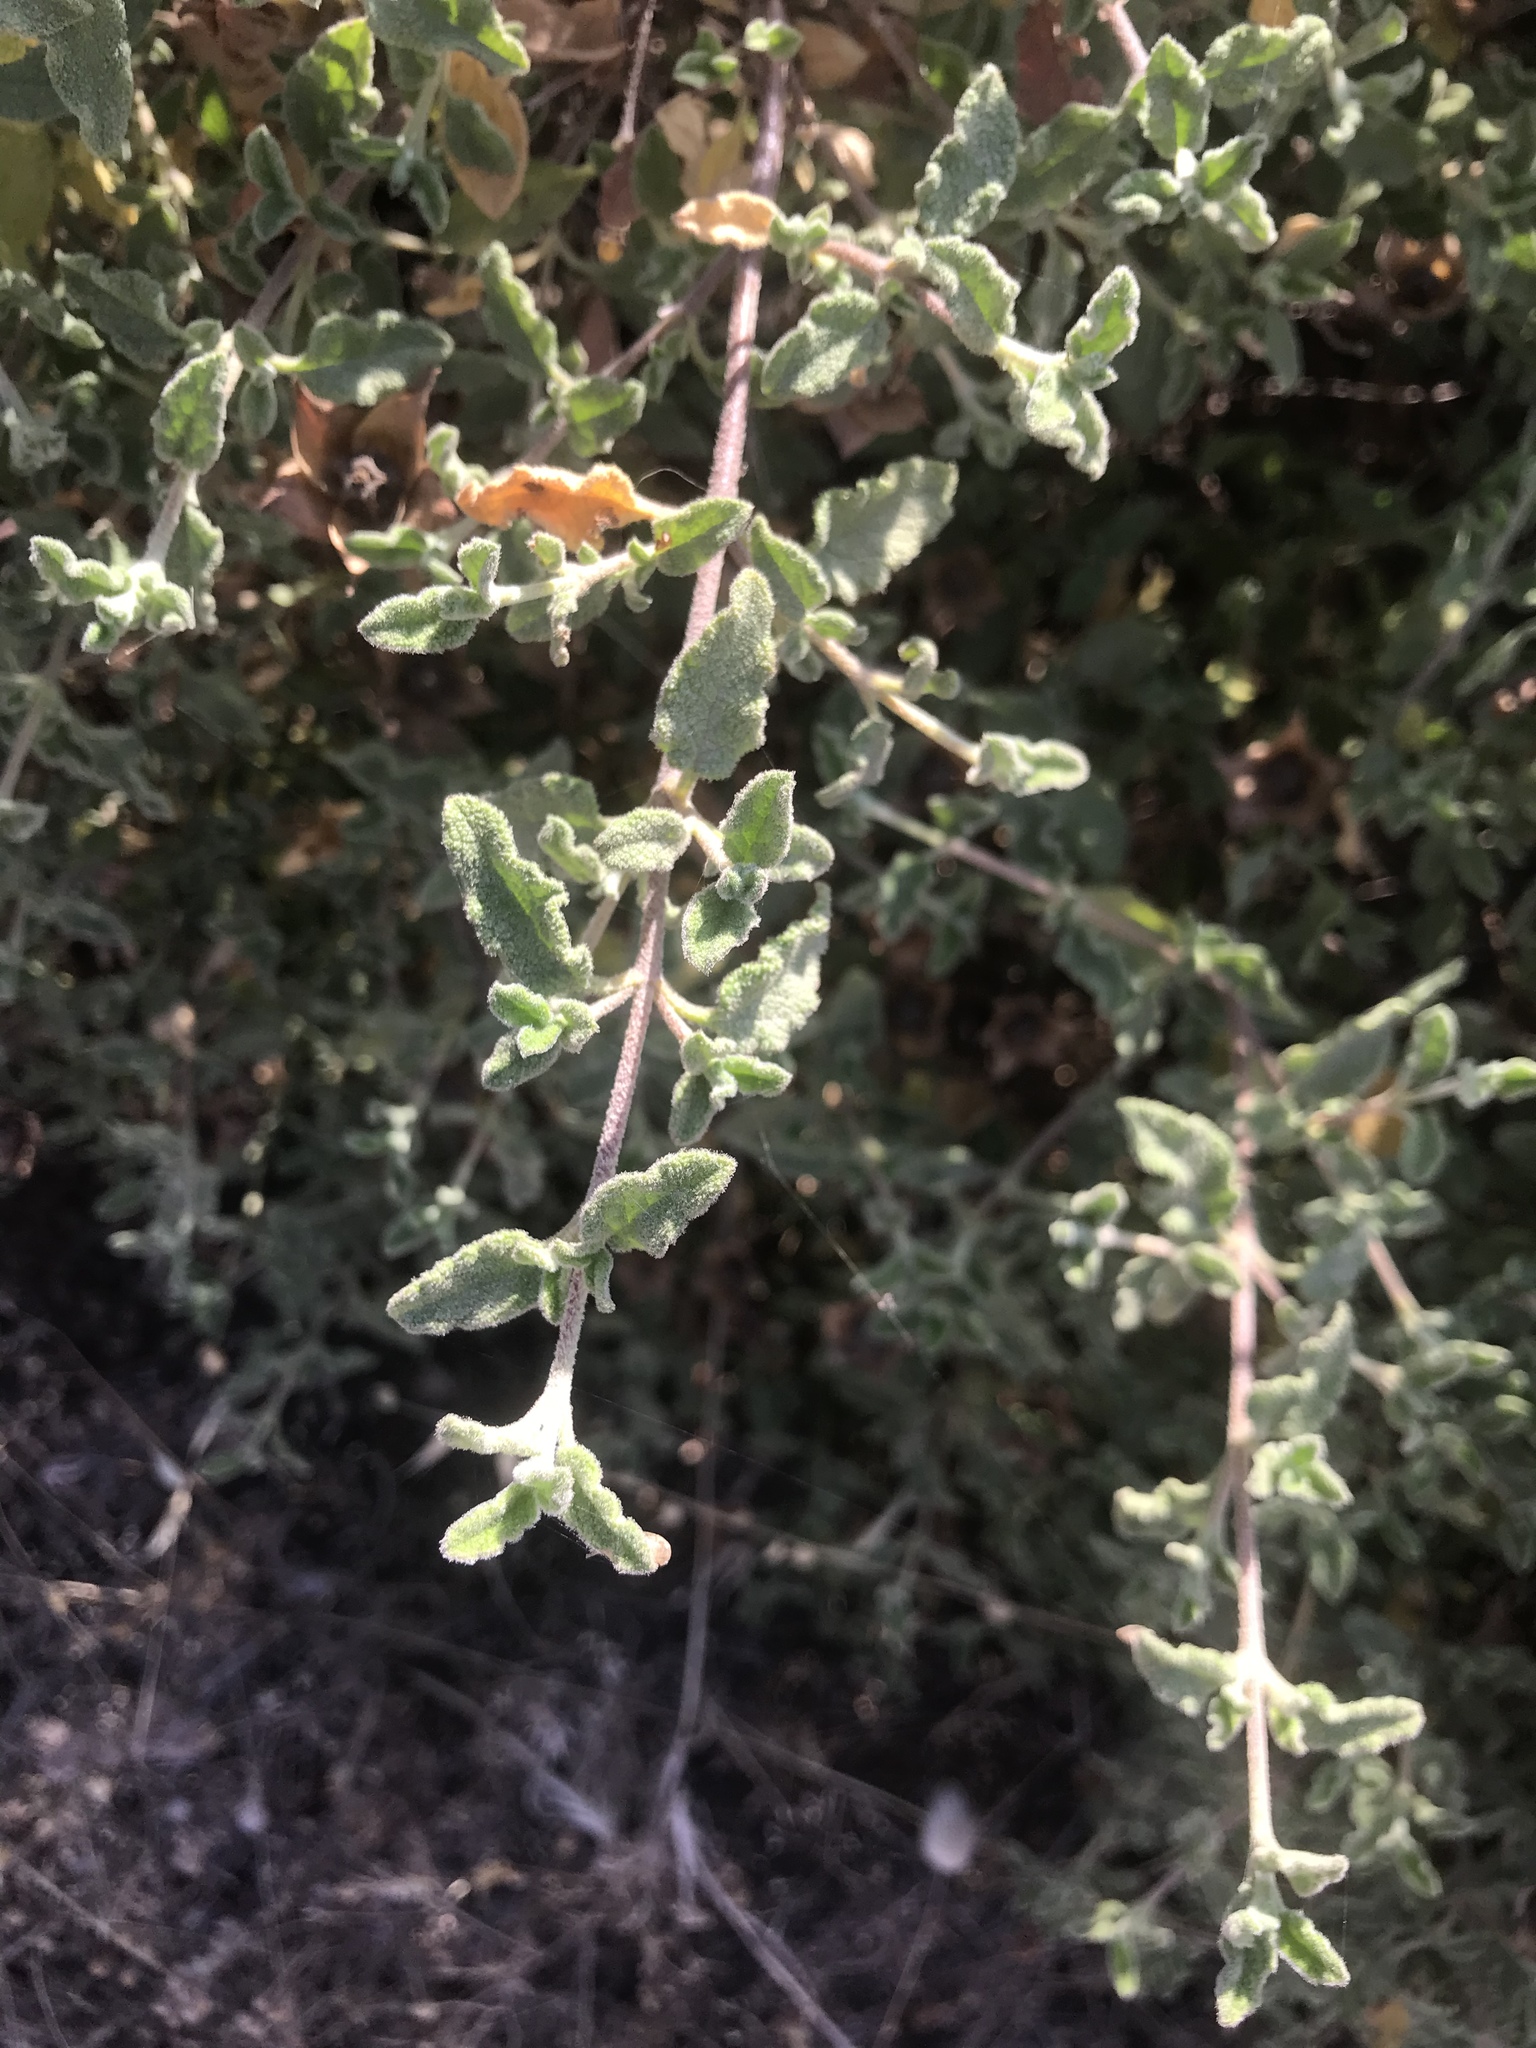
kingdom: Plantae
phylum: Tracheophyta
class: Magnoliopsida
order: Malvales
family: Cistaceae
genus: Cistus
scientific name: Cistus salviifolius
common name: Salvia cistus
